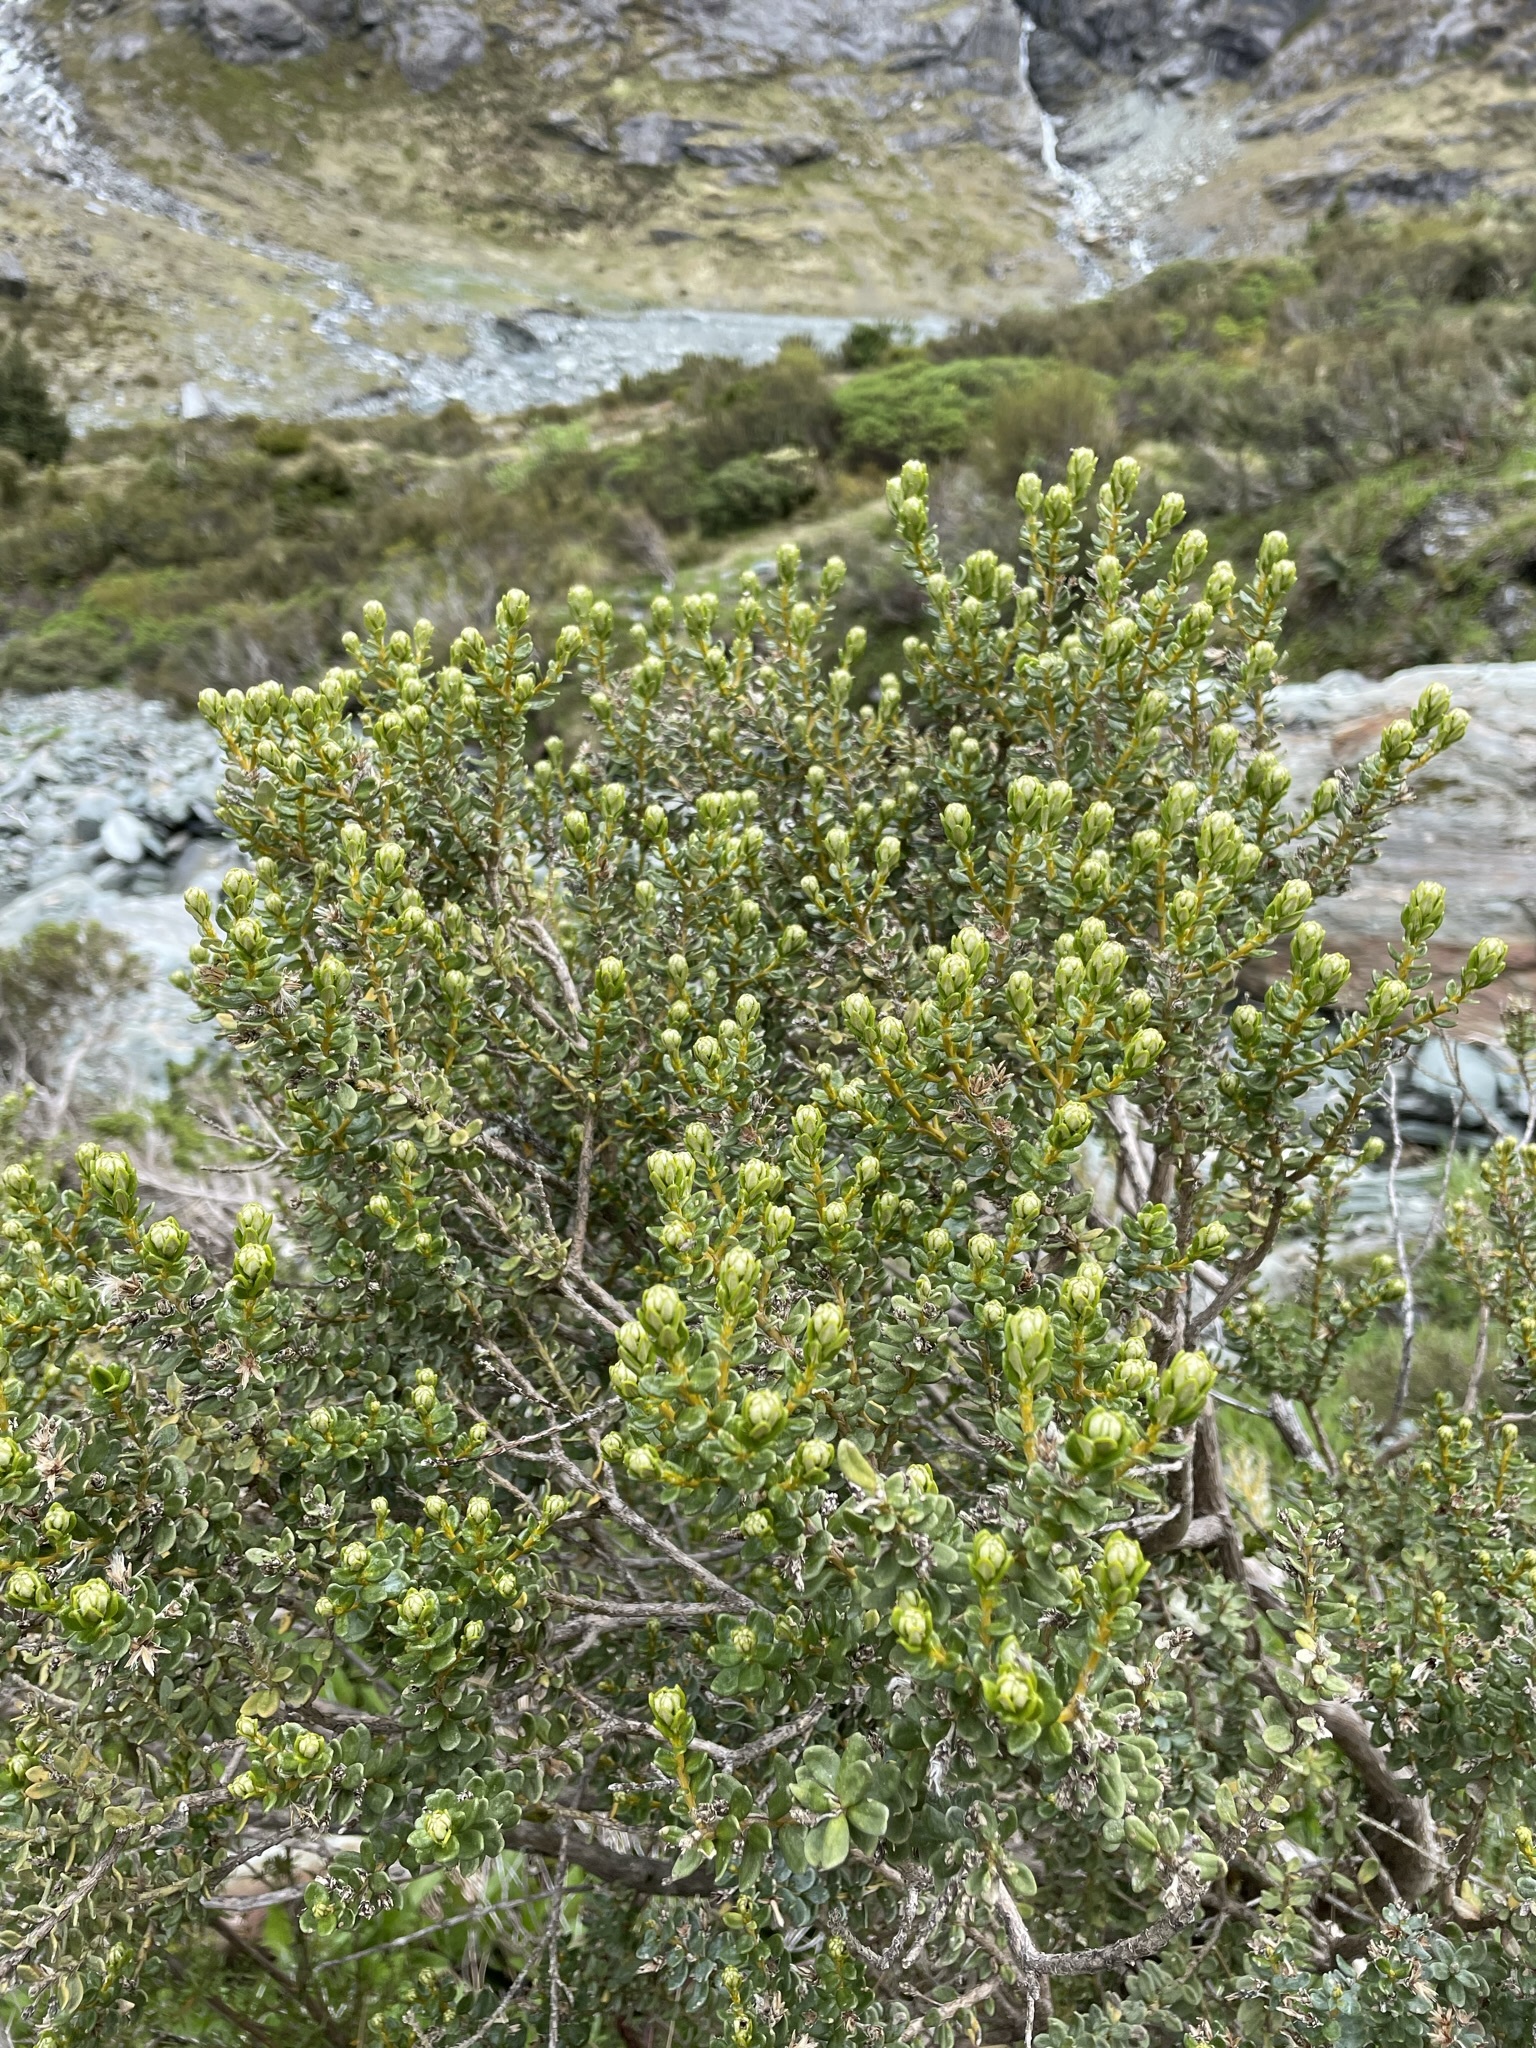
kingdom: Plantae
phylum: Tracheophyta
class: Magnoliopsida
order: Asterales
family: Asteraceae
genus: Olearia
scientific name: Olearia nummularifolia
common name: Sticky daisybush
